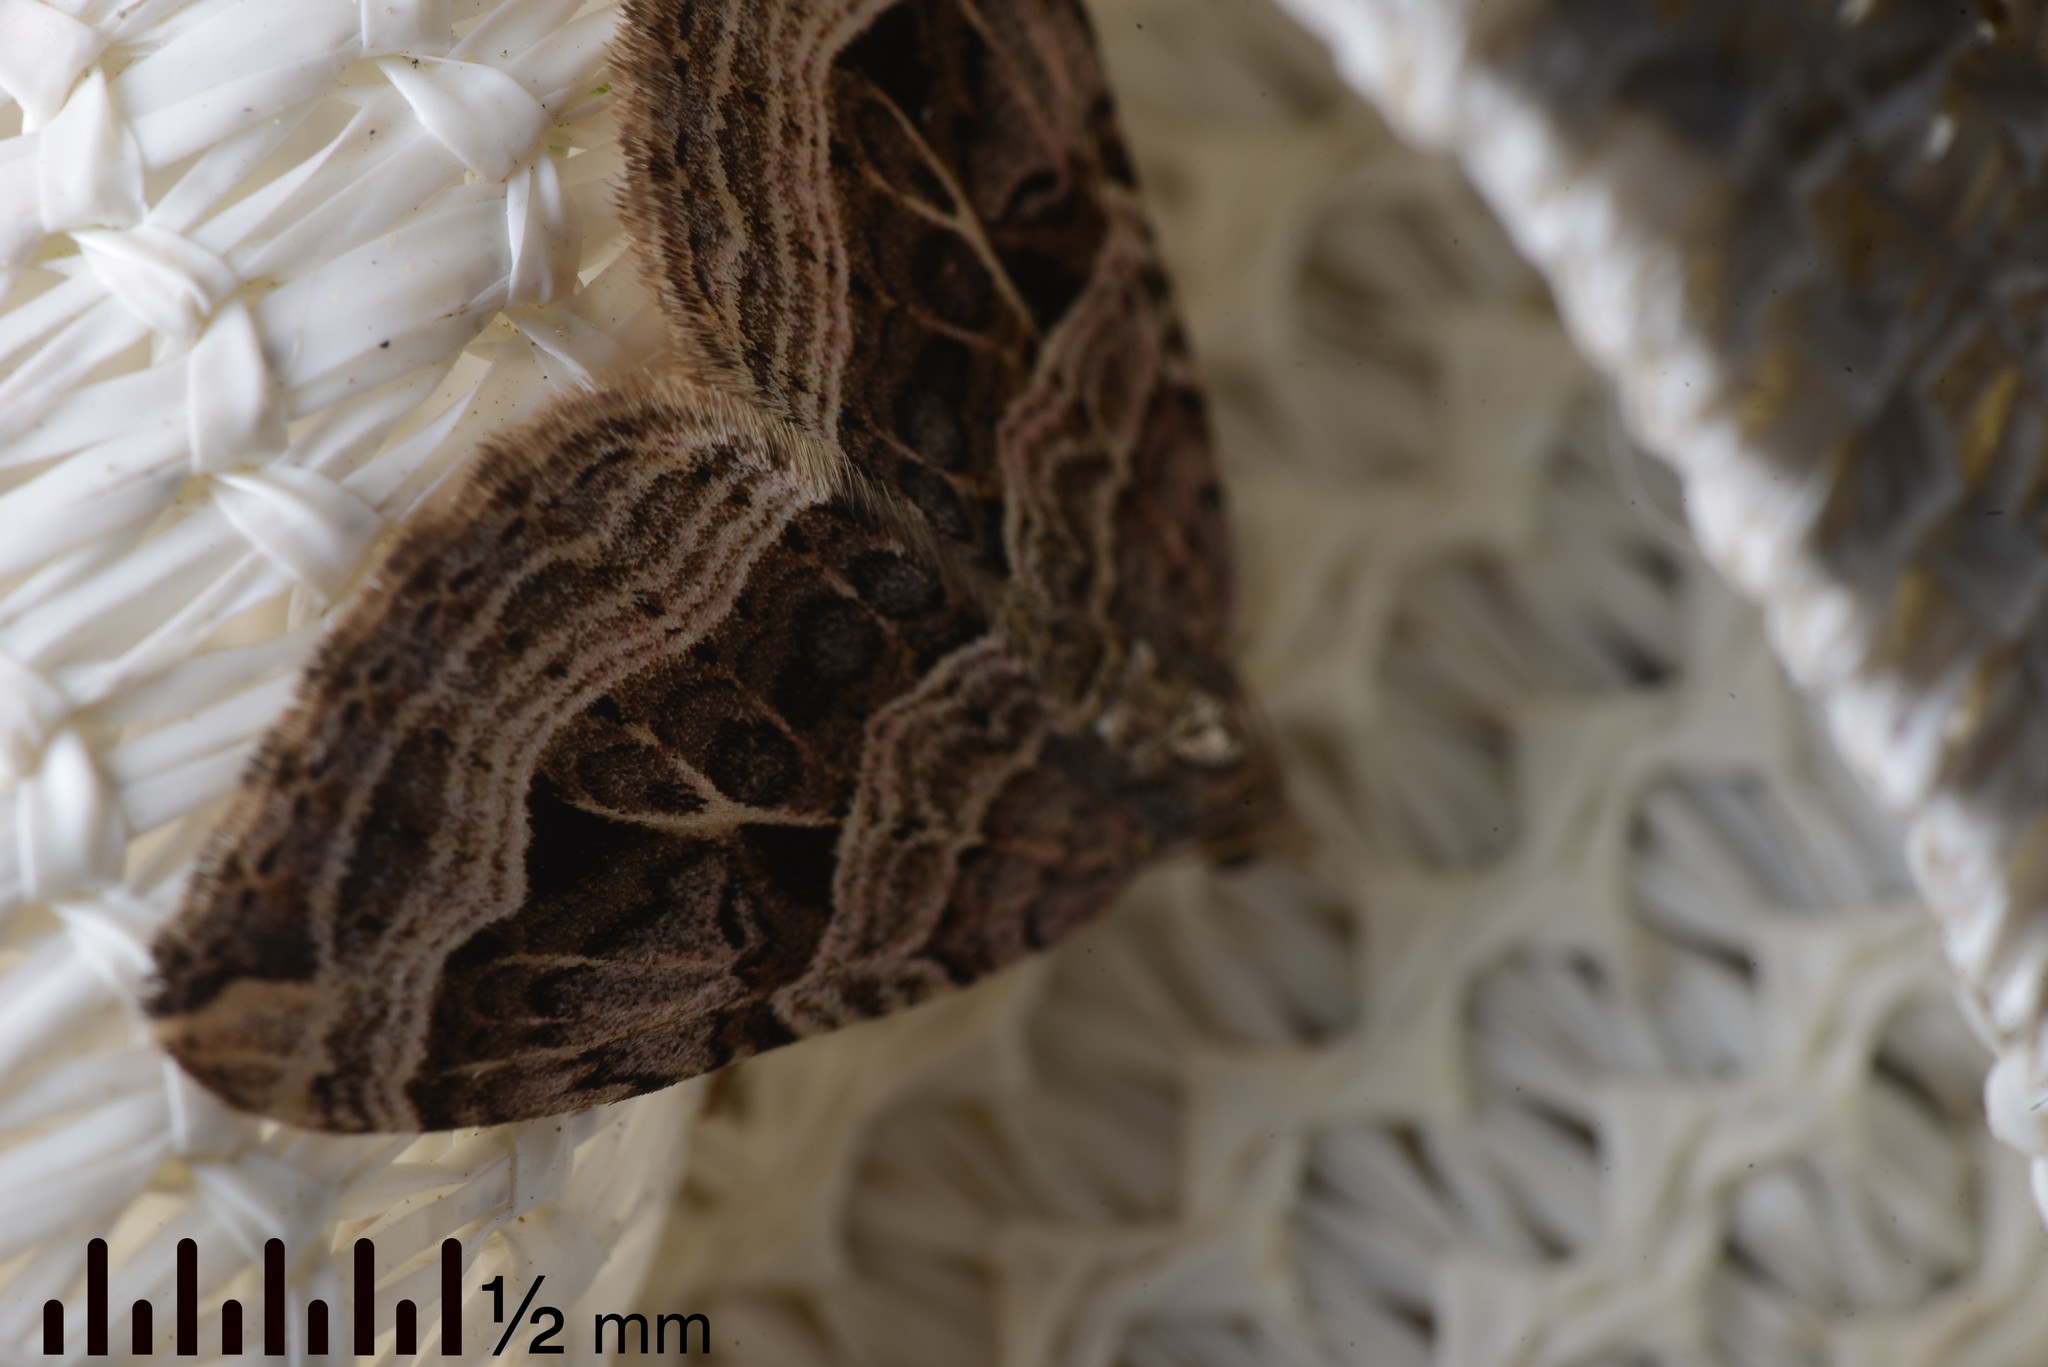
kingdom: Animalia
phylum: Arthropoda
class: Insecta
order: Lepidoptera
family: Geometridae
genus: Xanthorhoe
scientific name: Xanthorhoe semifissata
